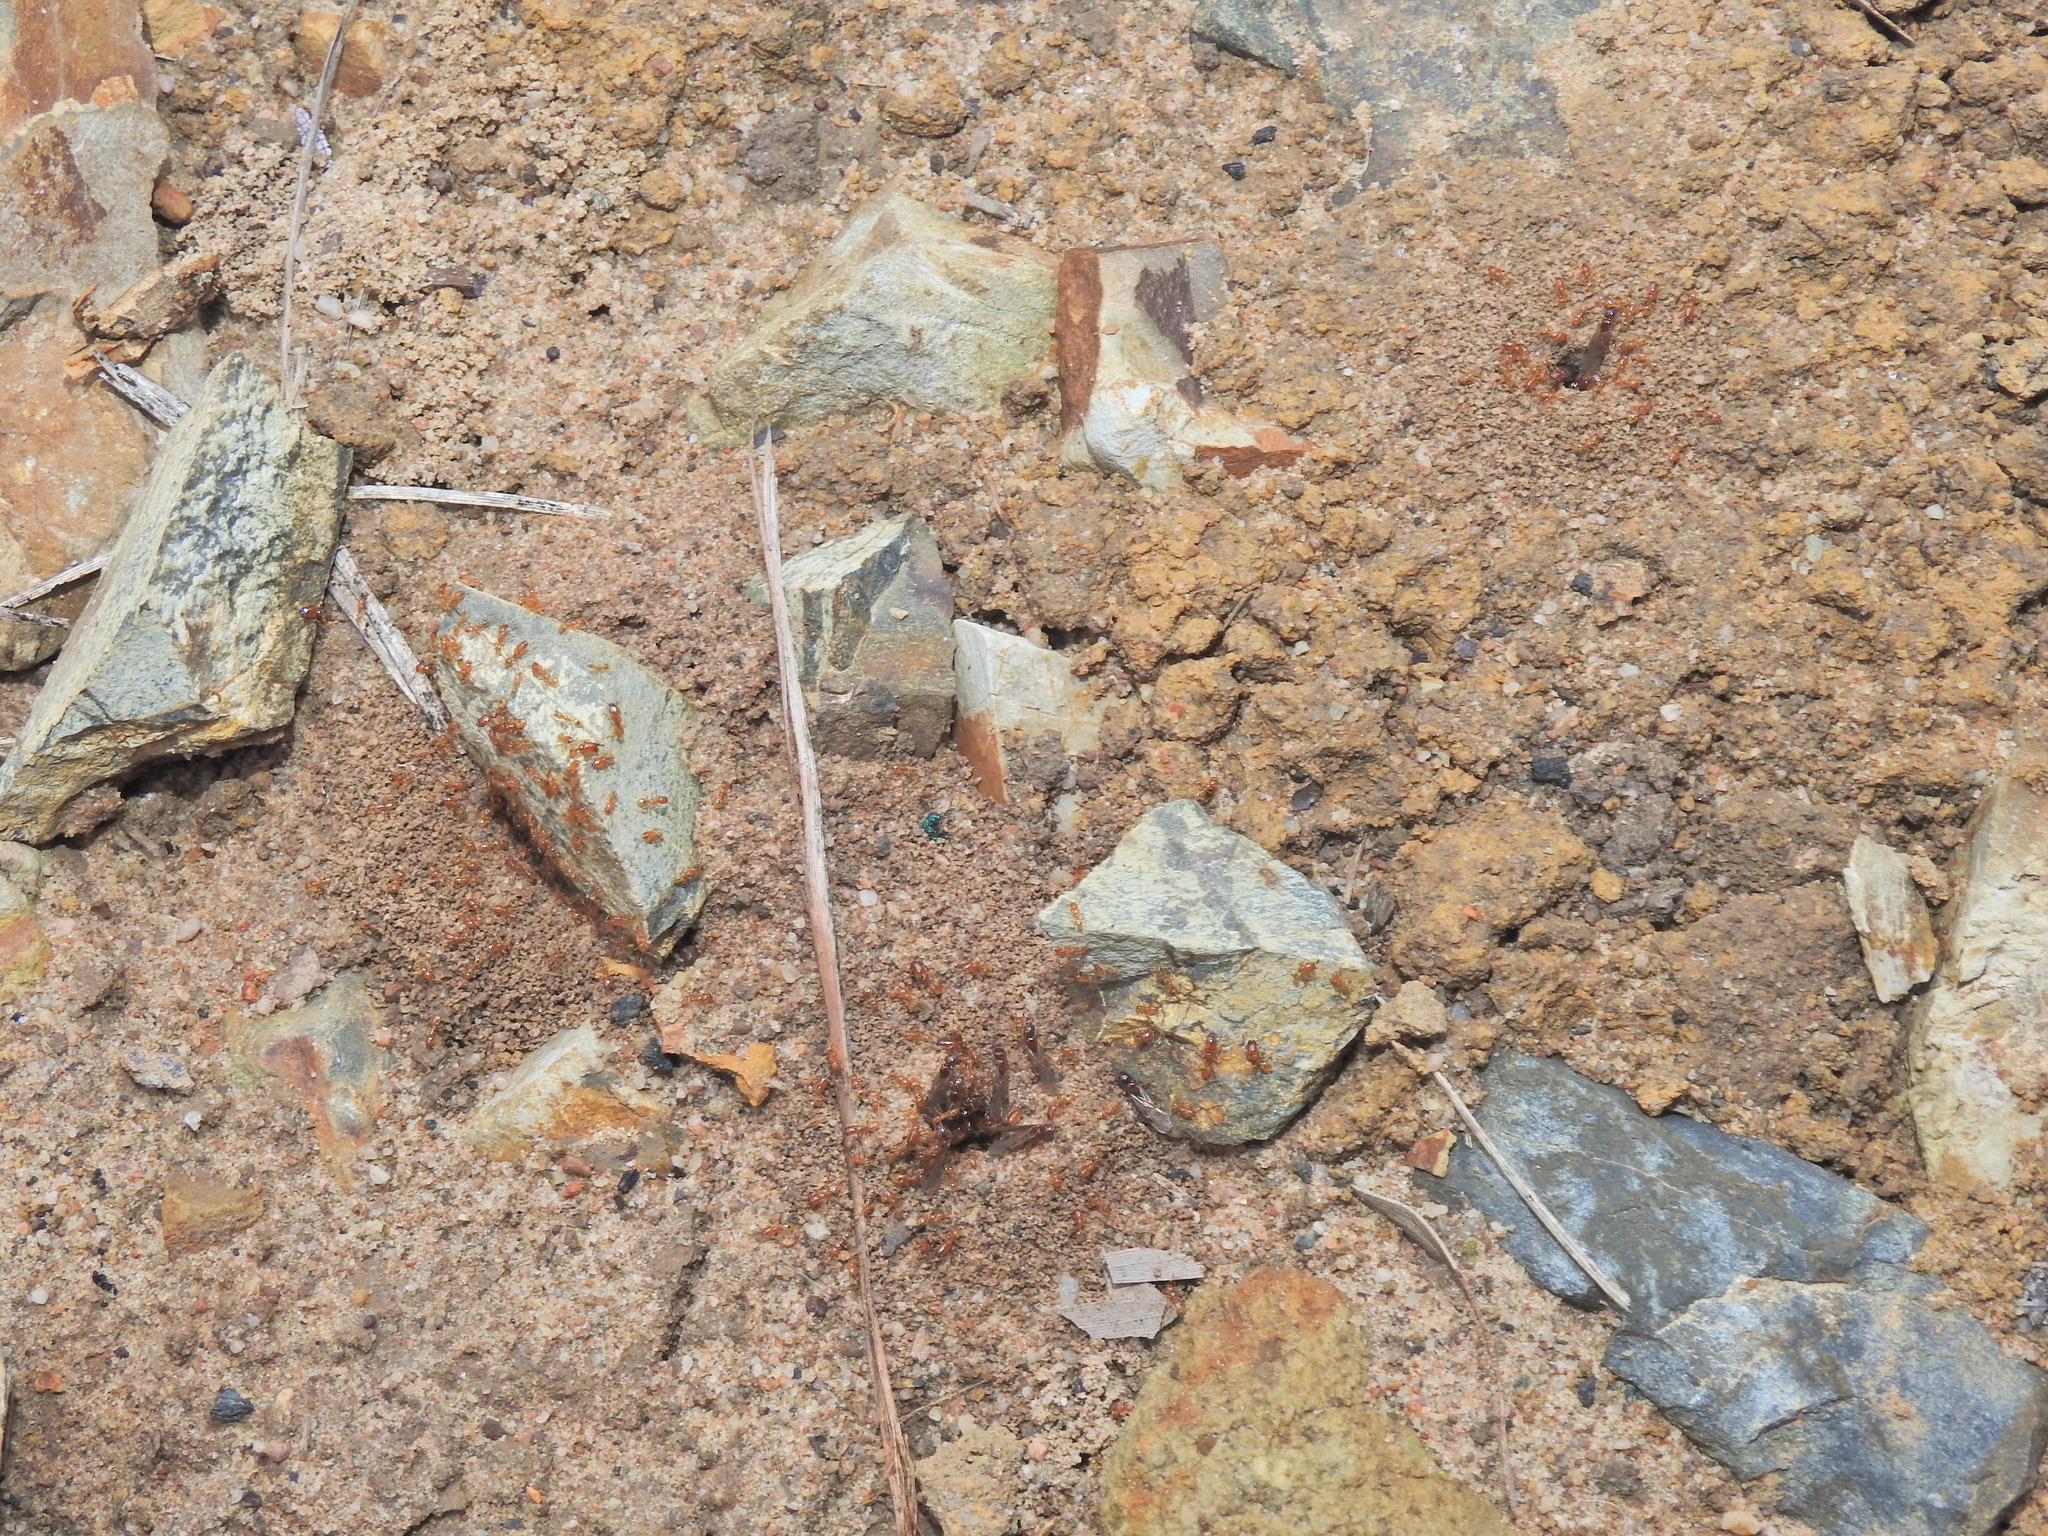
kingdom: Animalia
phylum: Arthropoda
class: Insecta
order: Hymenoptera
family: Formicidae
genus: Pheidole
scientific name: Pheidole
